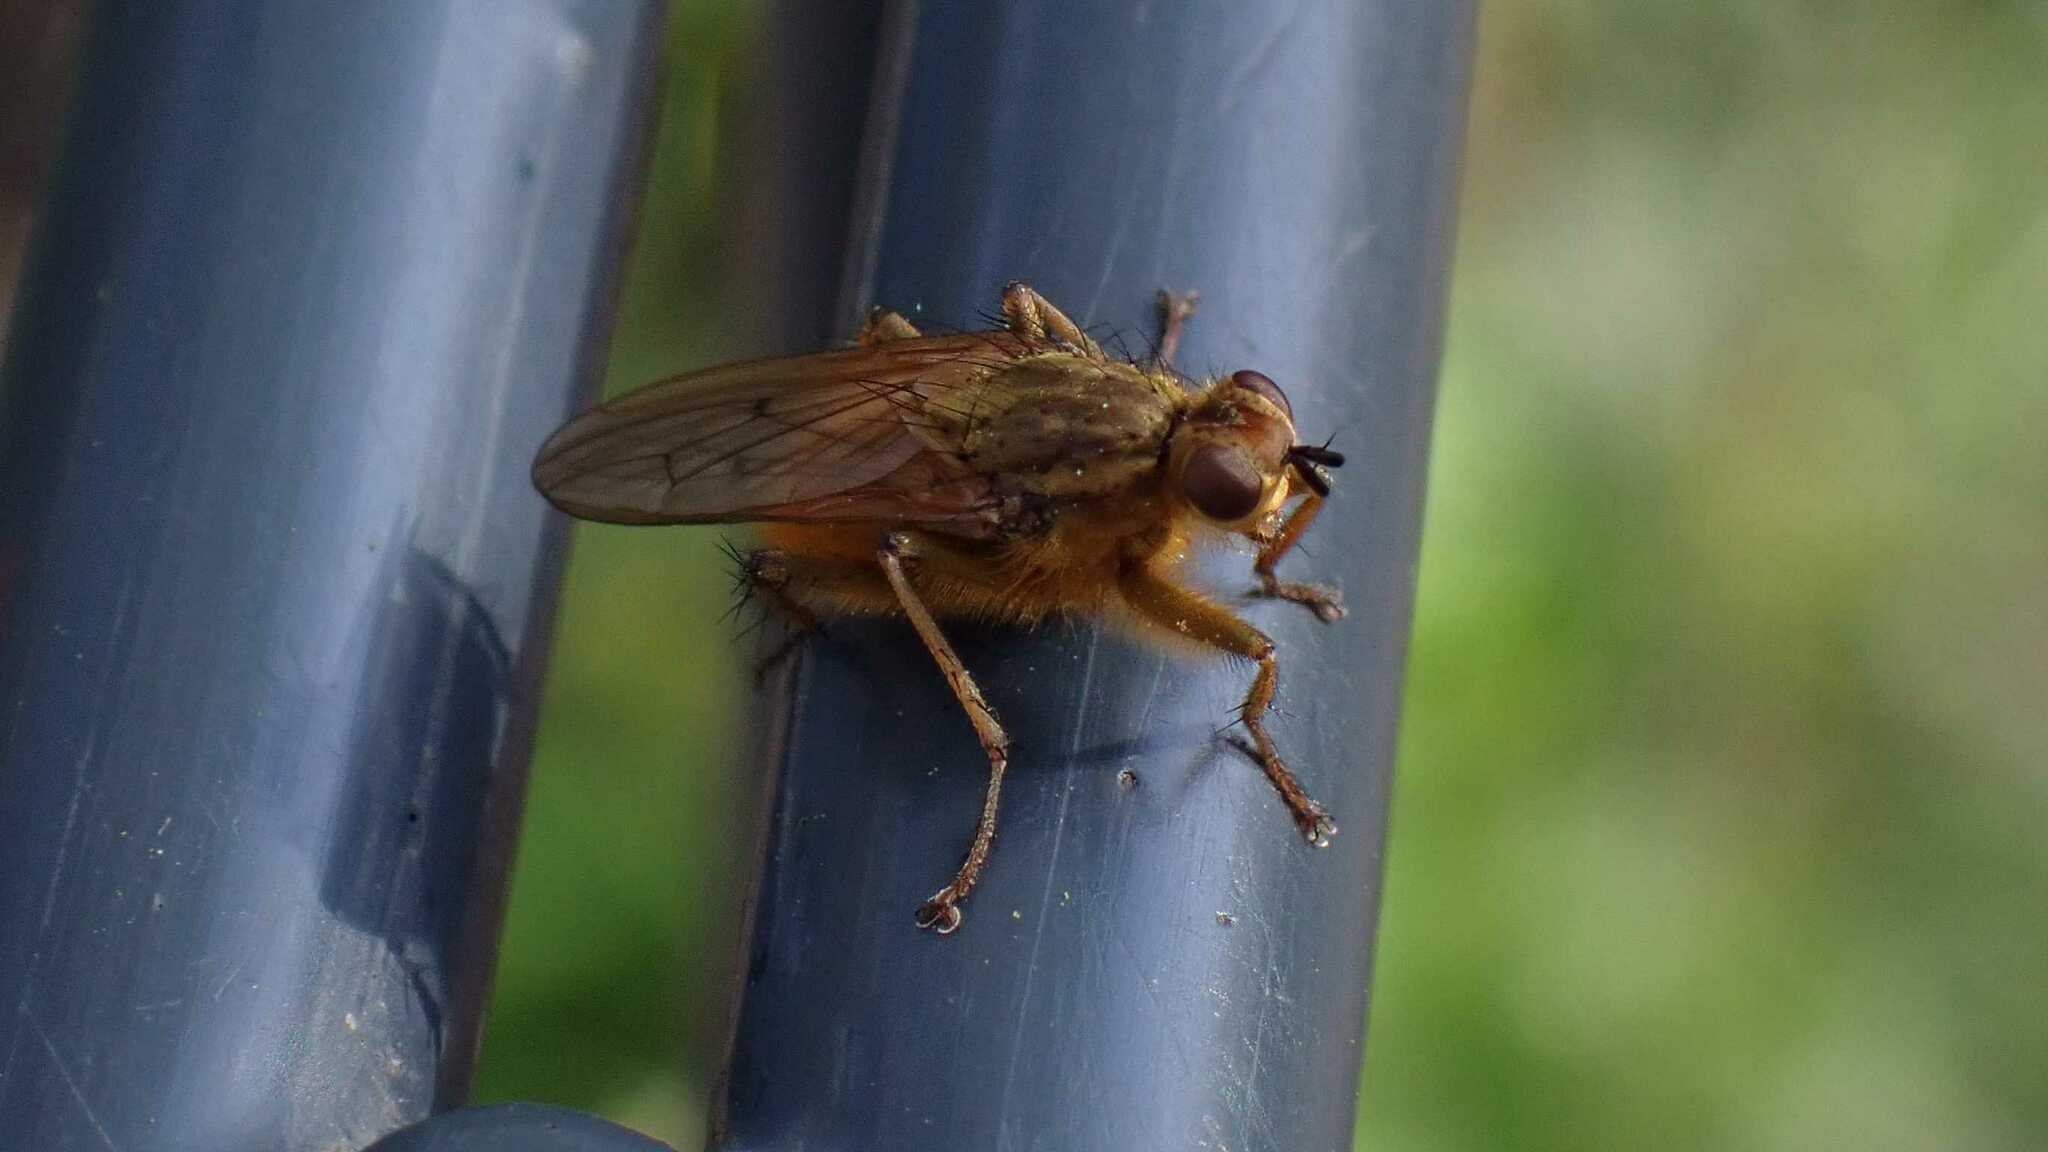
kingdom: Animalia
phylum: Arthropoda
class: Insecta
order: Diptera
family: Scathophagidae
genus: Scathophaga
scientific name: Scathophaga stercoraria
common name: Yellow dung fly
